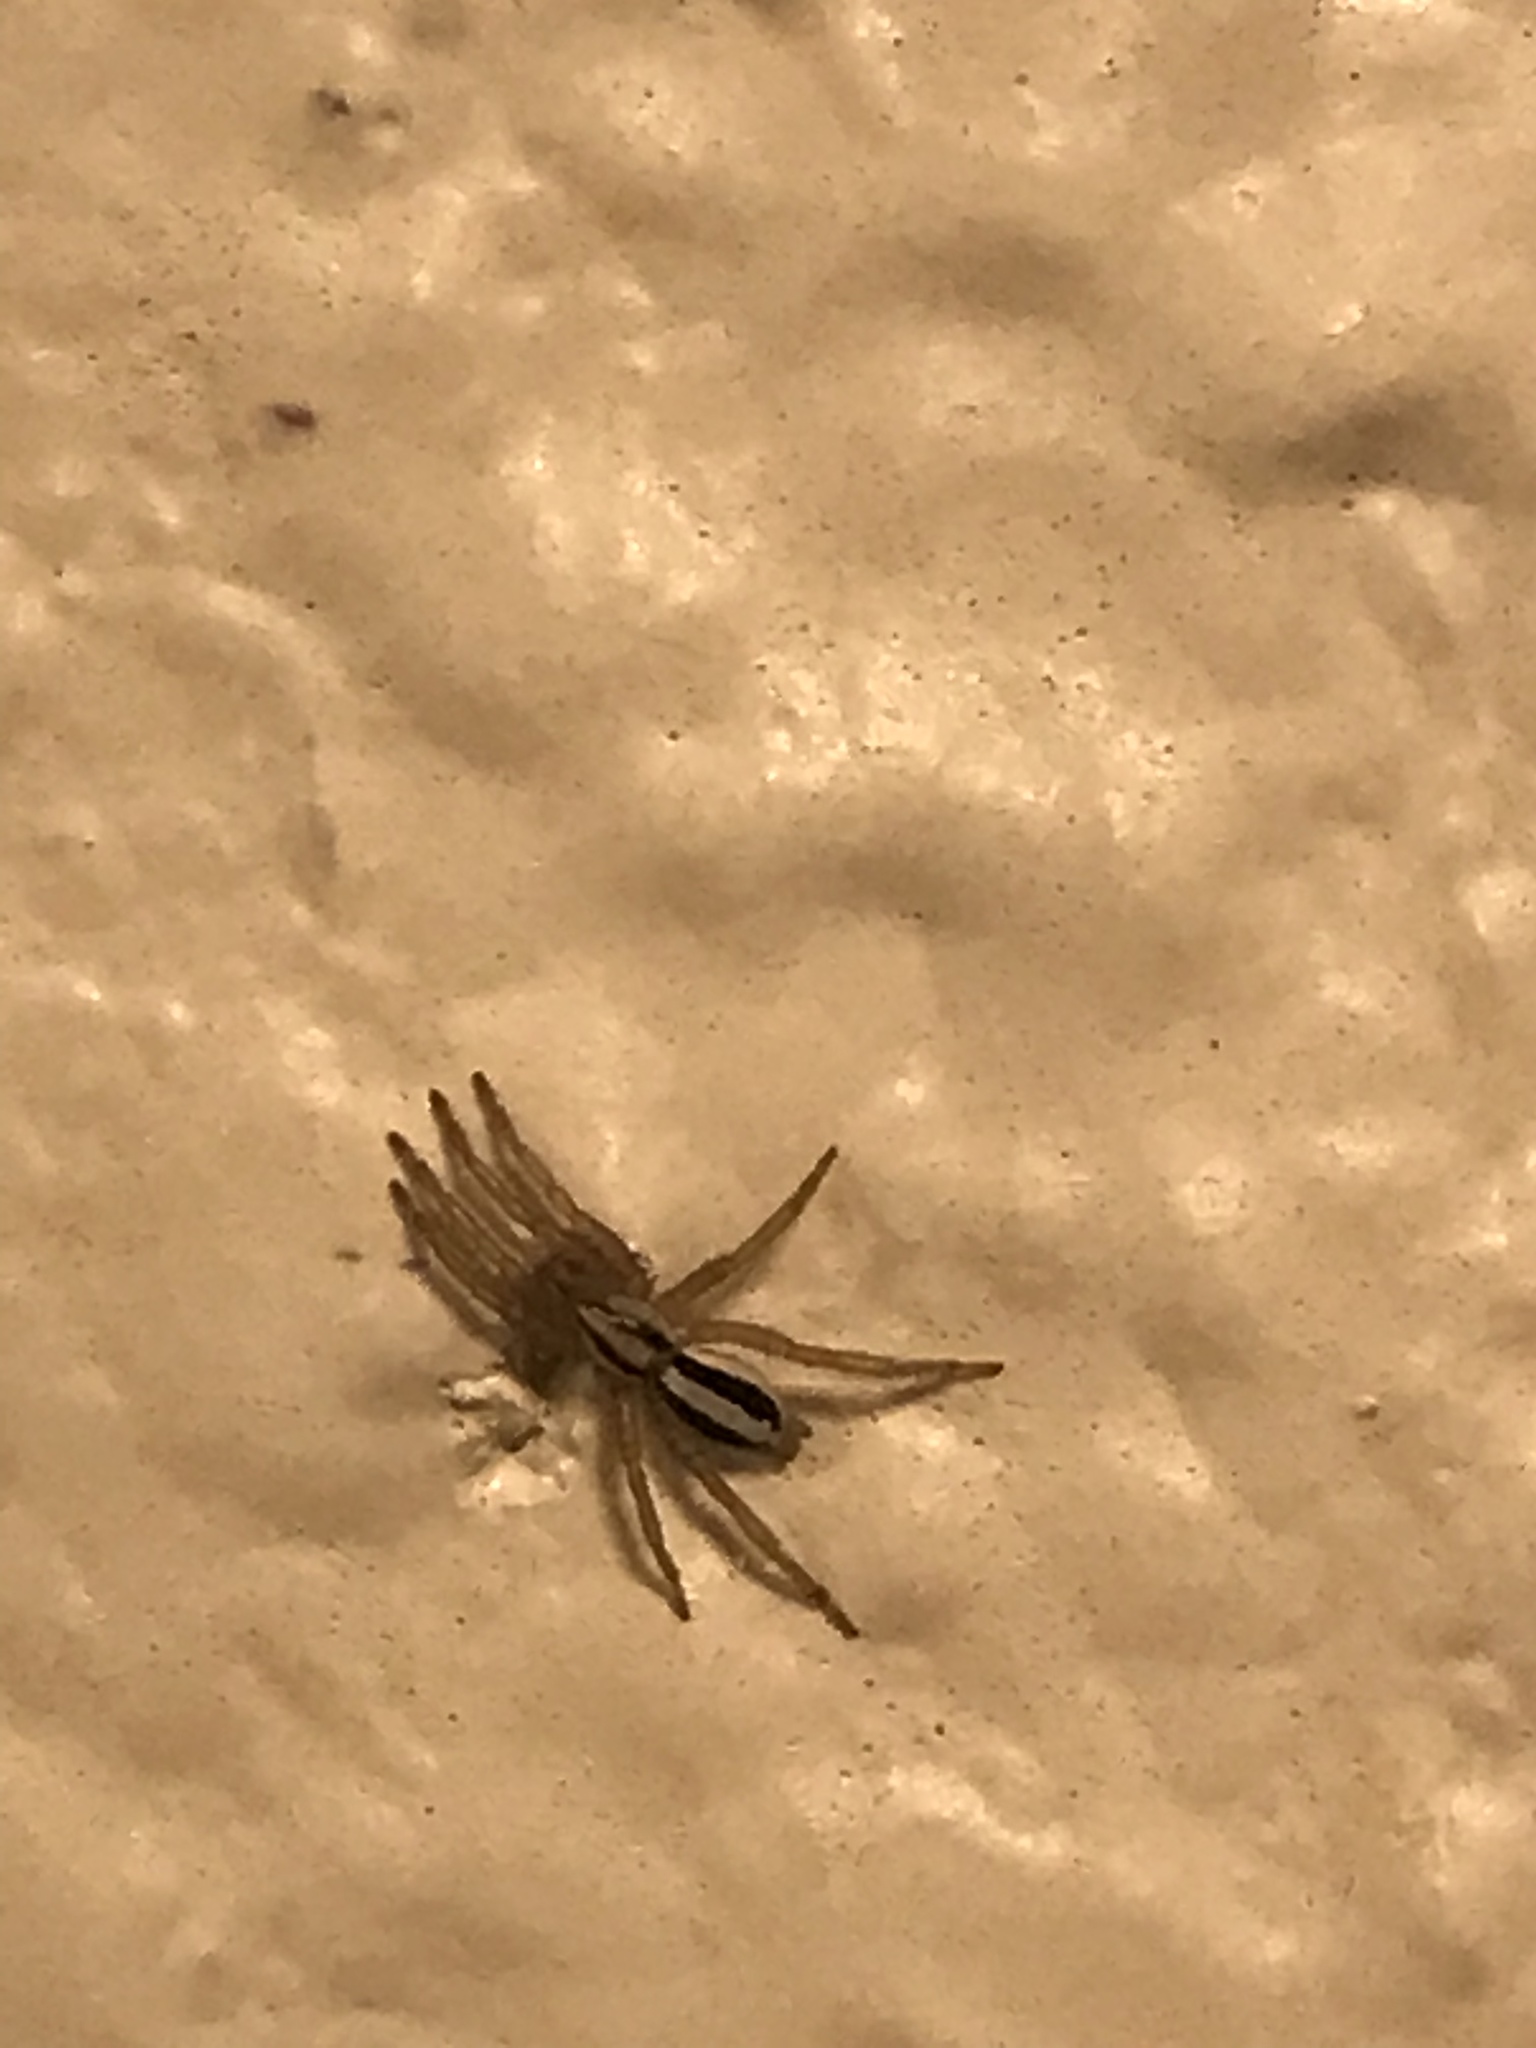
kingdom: Animalia
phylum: Arthropoda
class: Arachnida
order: Araneae
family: Gnaphosidae
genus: Cesonia
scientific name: Cesonia bilineata
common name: Two-lined stealthy ground spider
